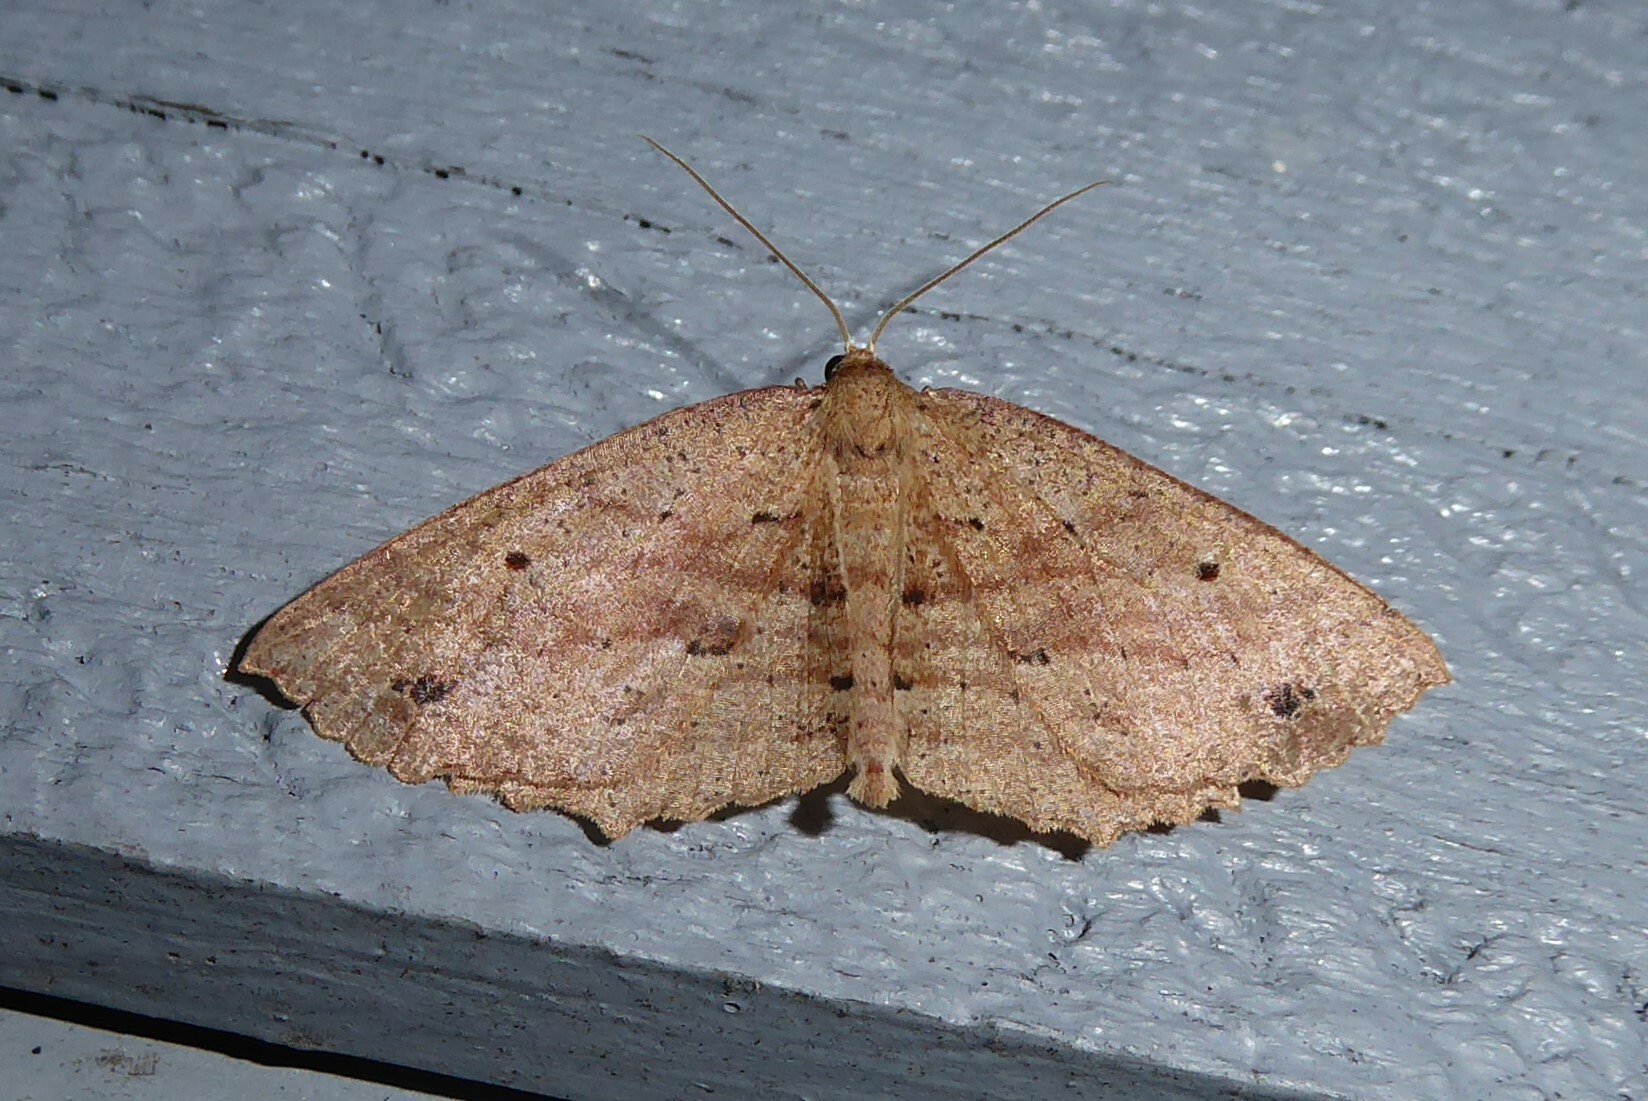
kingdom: Animalia
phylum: Arthropoda
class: Insecta
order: Lepidoptera
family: Geometridae
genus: Xyridacma
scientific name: Xyridacma veronicae
